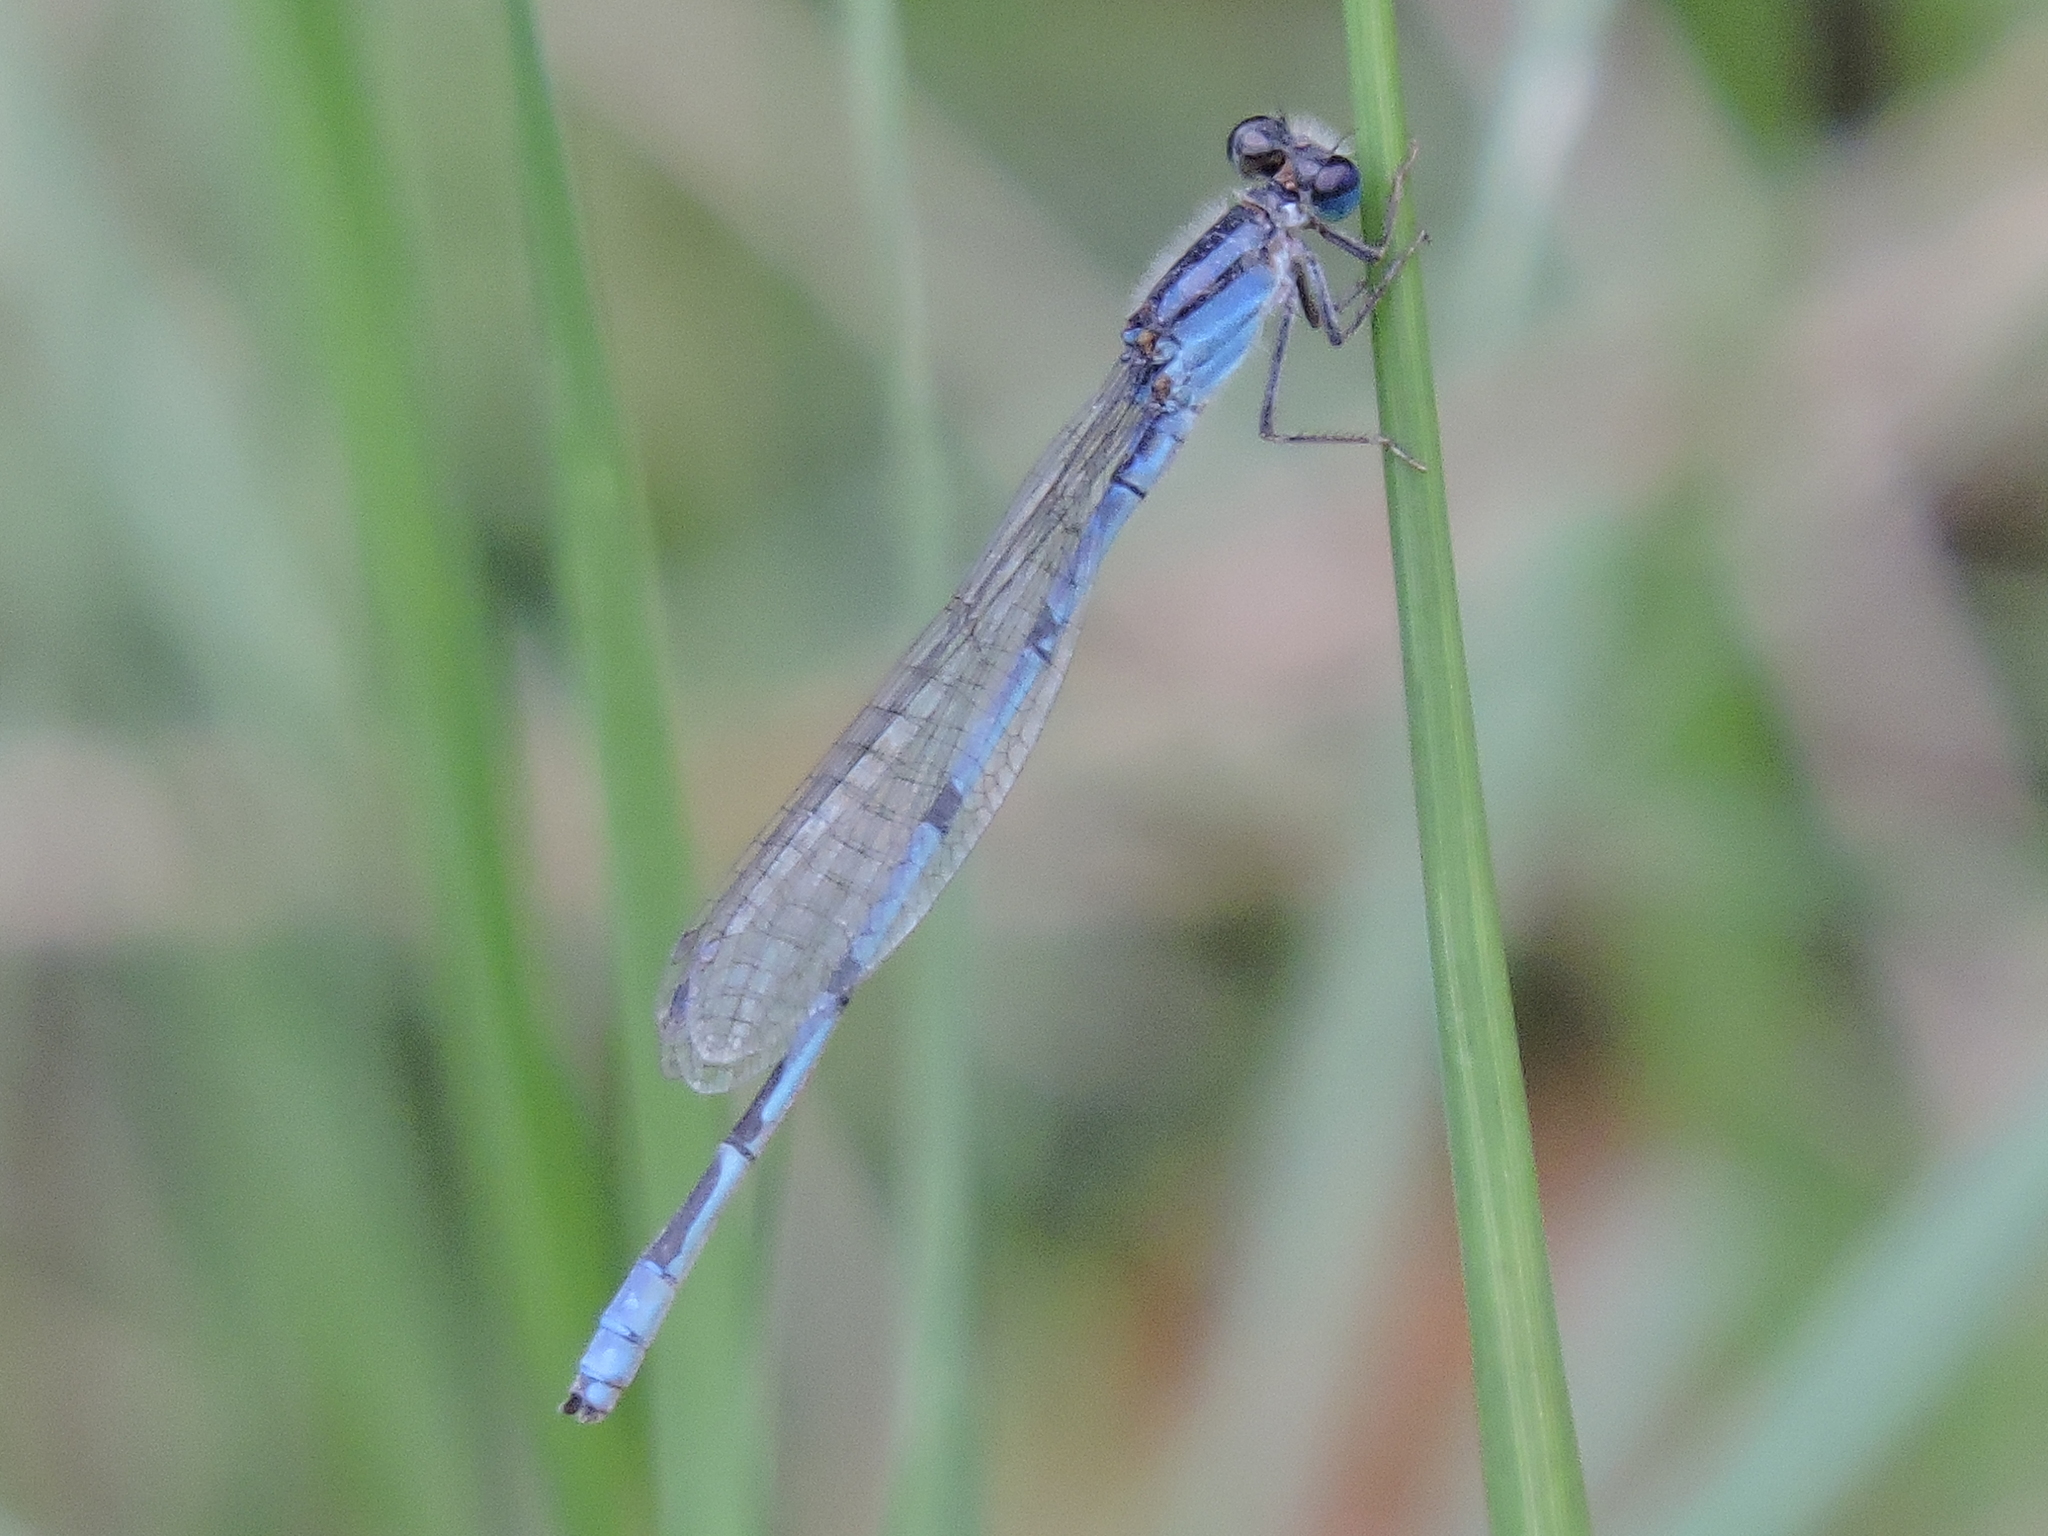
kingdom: Animalia
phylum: Arthropoda
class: Insecta
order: Odonata
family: Coenagrionidae
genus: Enallagma
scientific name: Enallagma civile
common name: Damselfly
